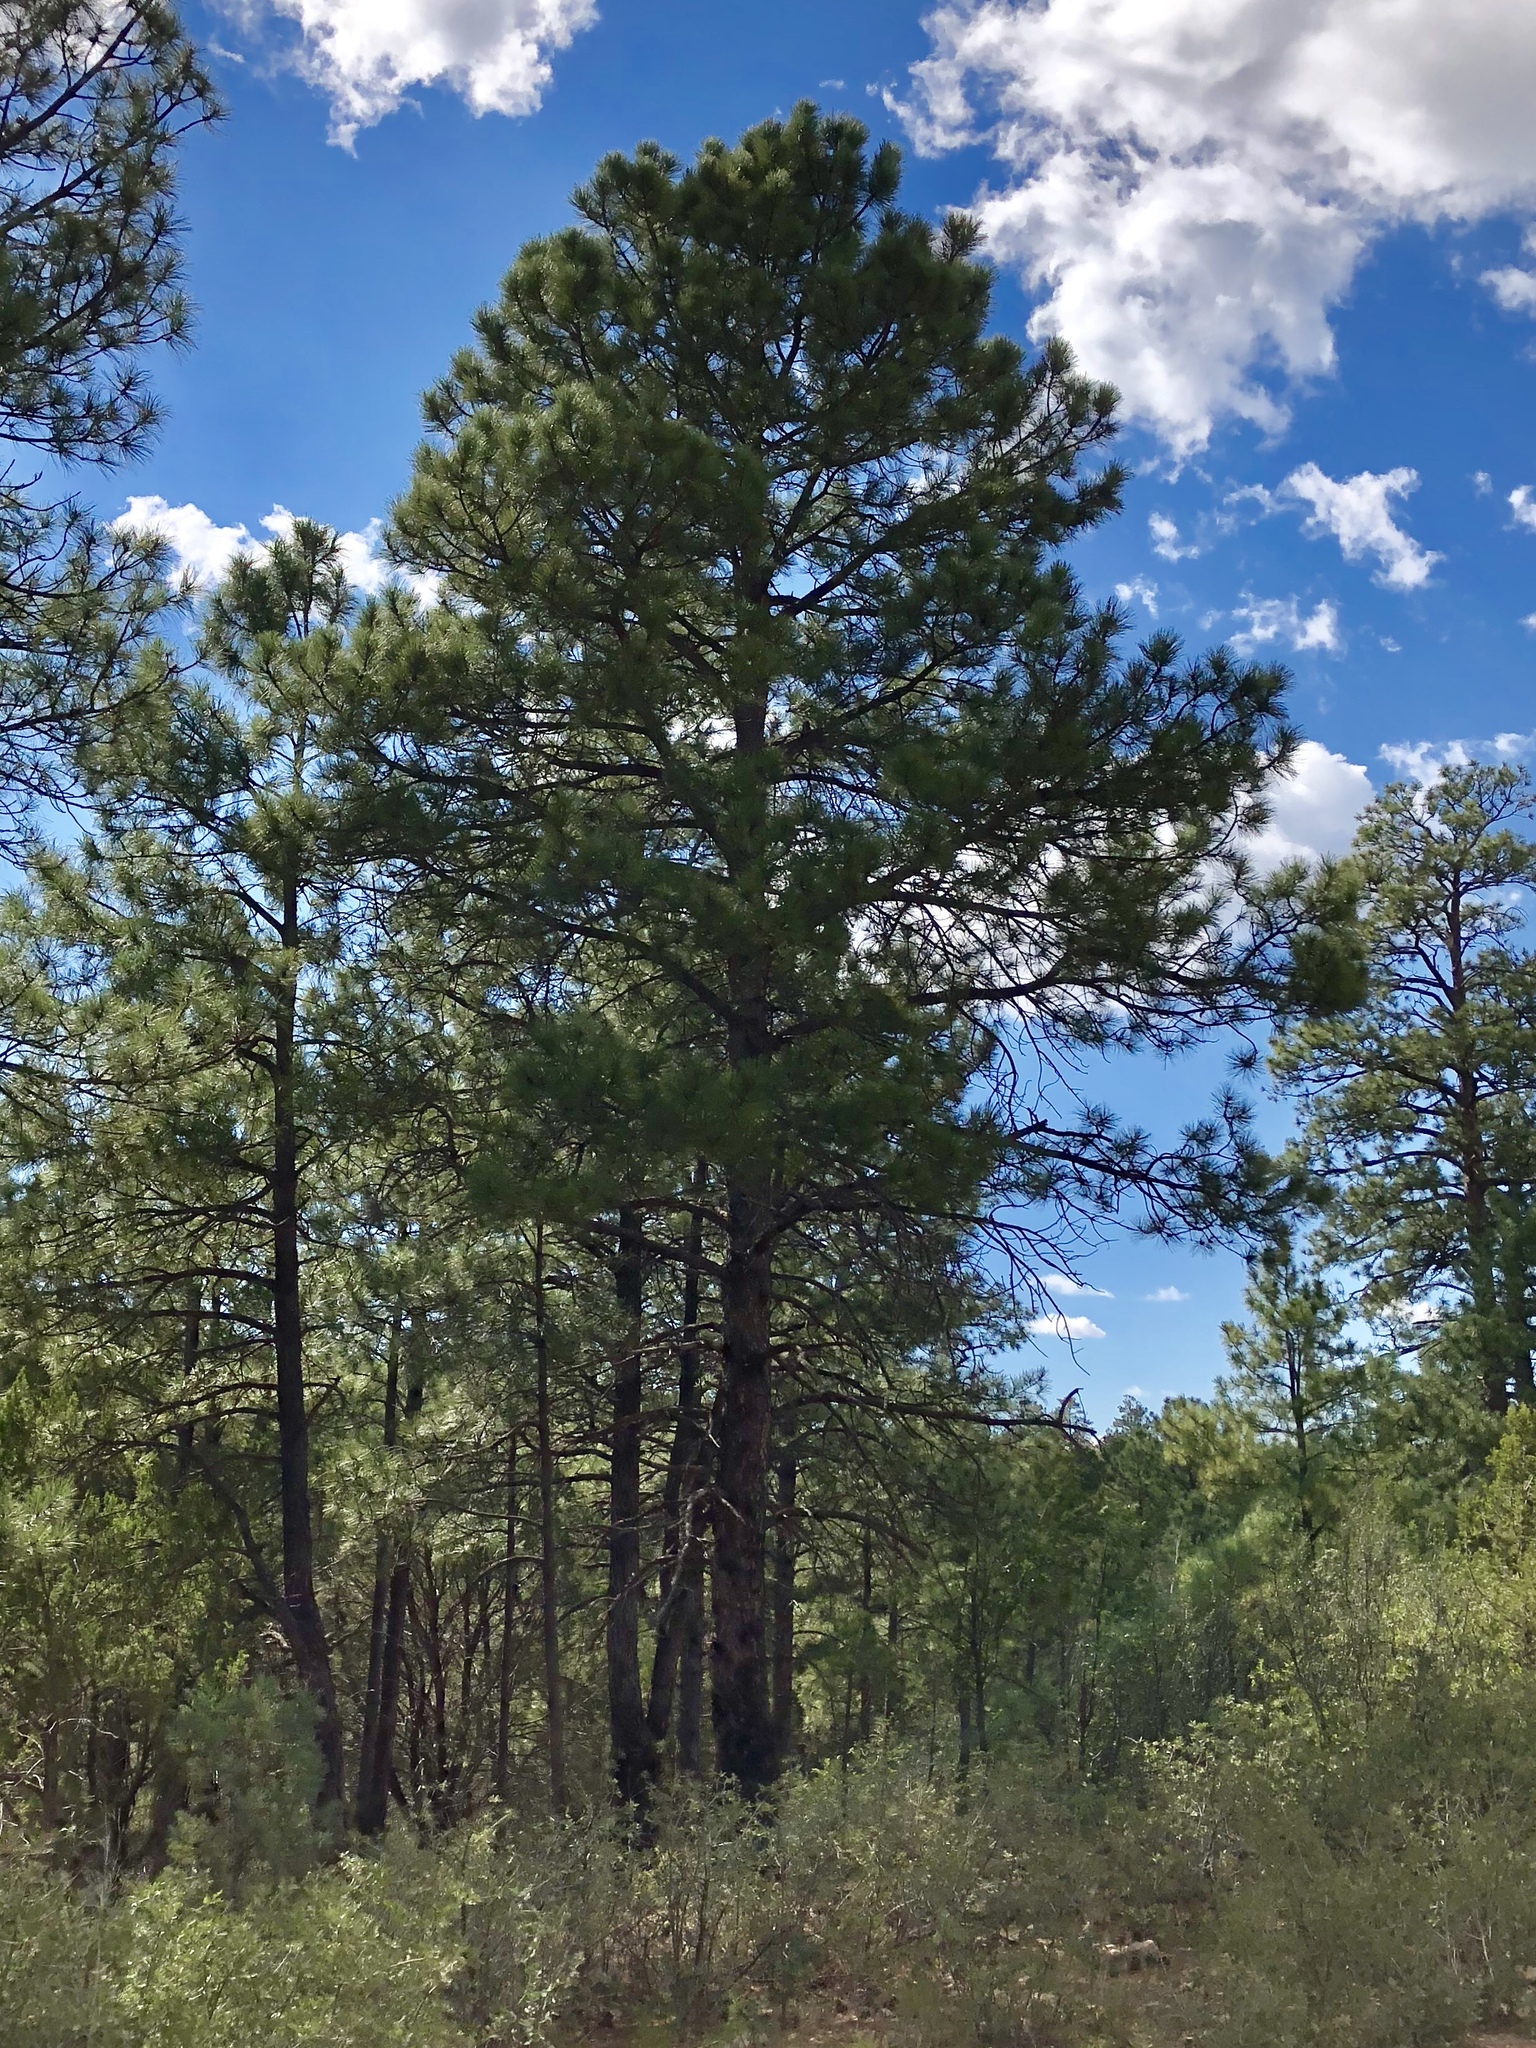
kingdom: Plantae
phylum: Tracheophyta
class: Pinopsida
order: Pinales
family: Pinaceae
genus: Pinus
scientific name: Pinus ponderosa
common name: Western yellow-pine
